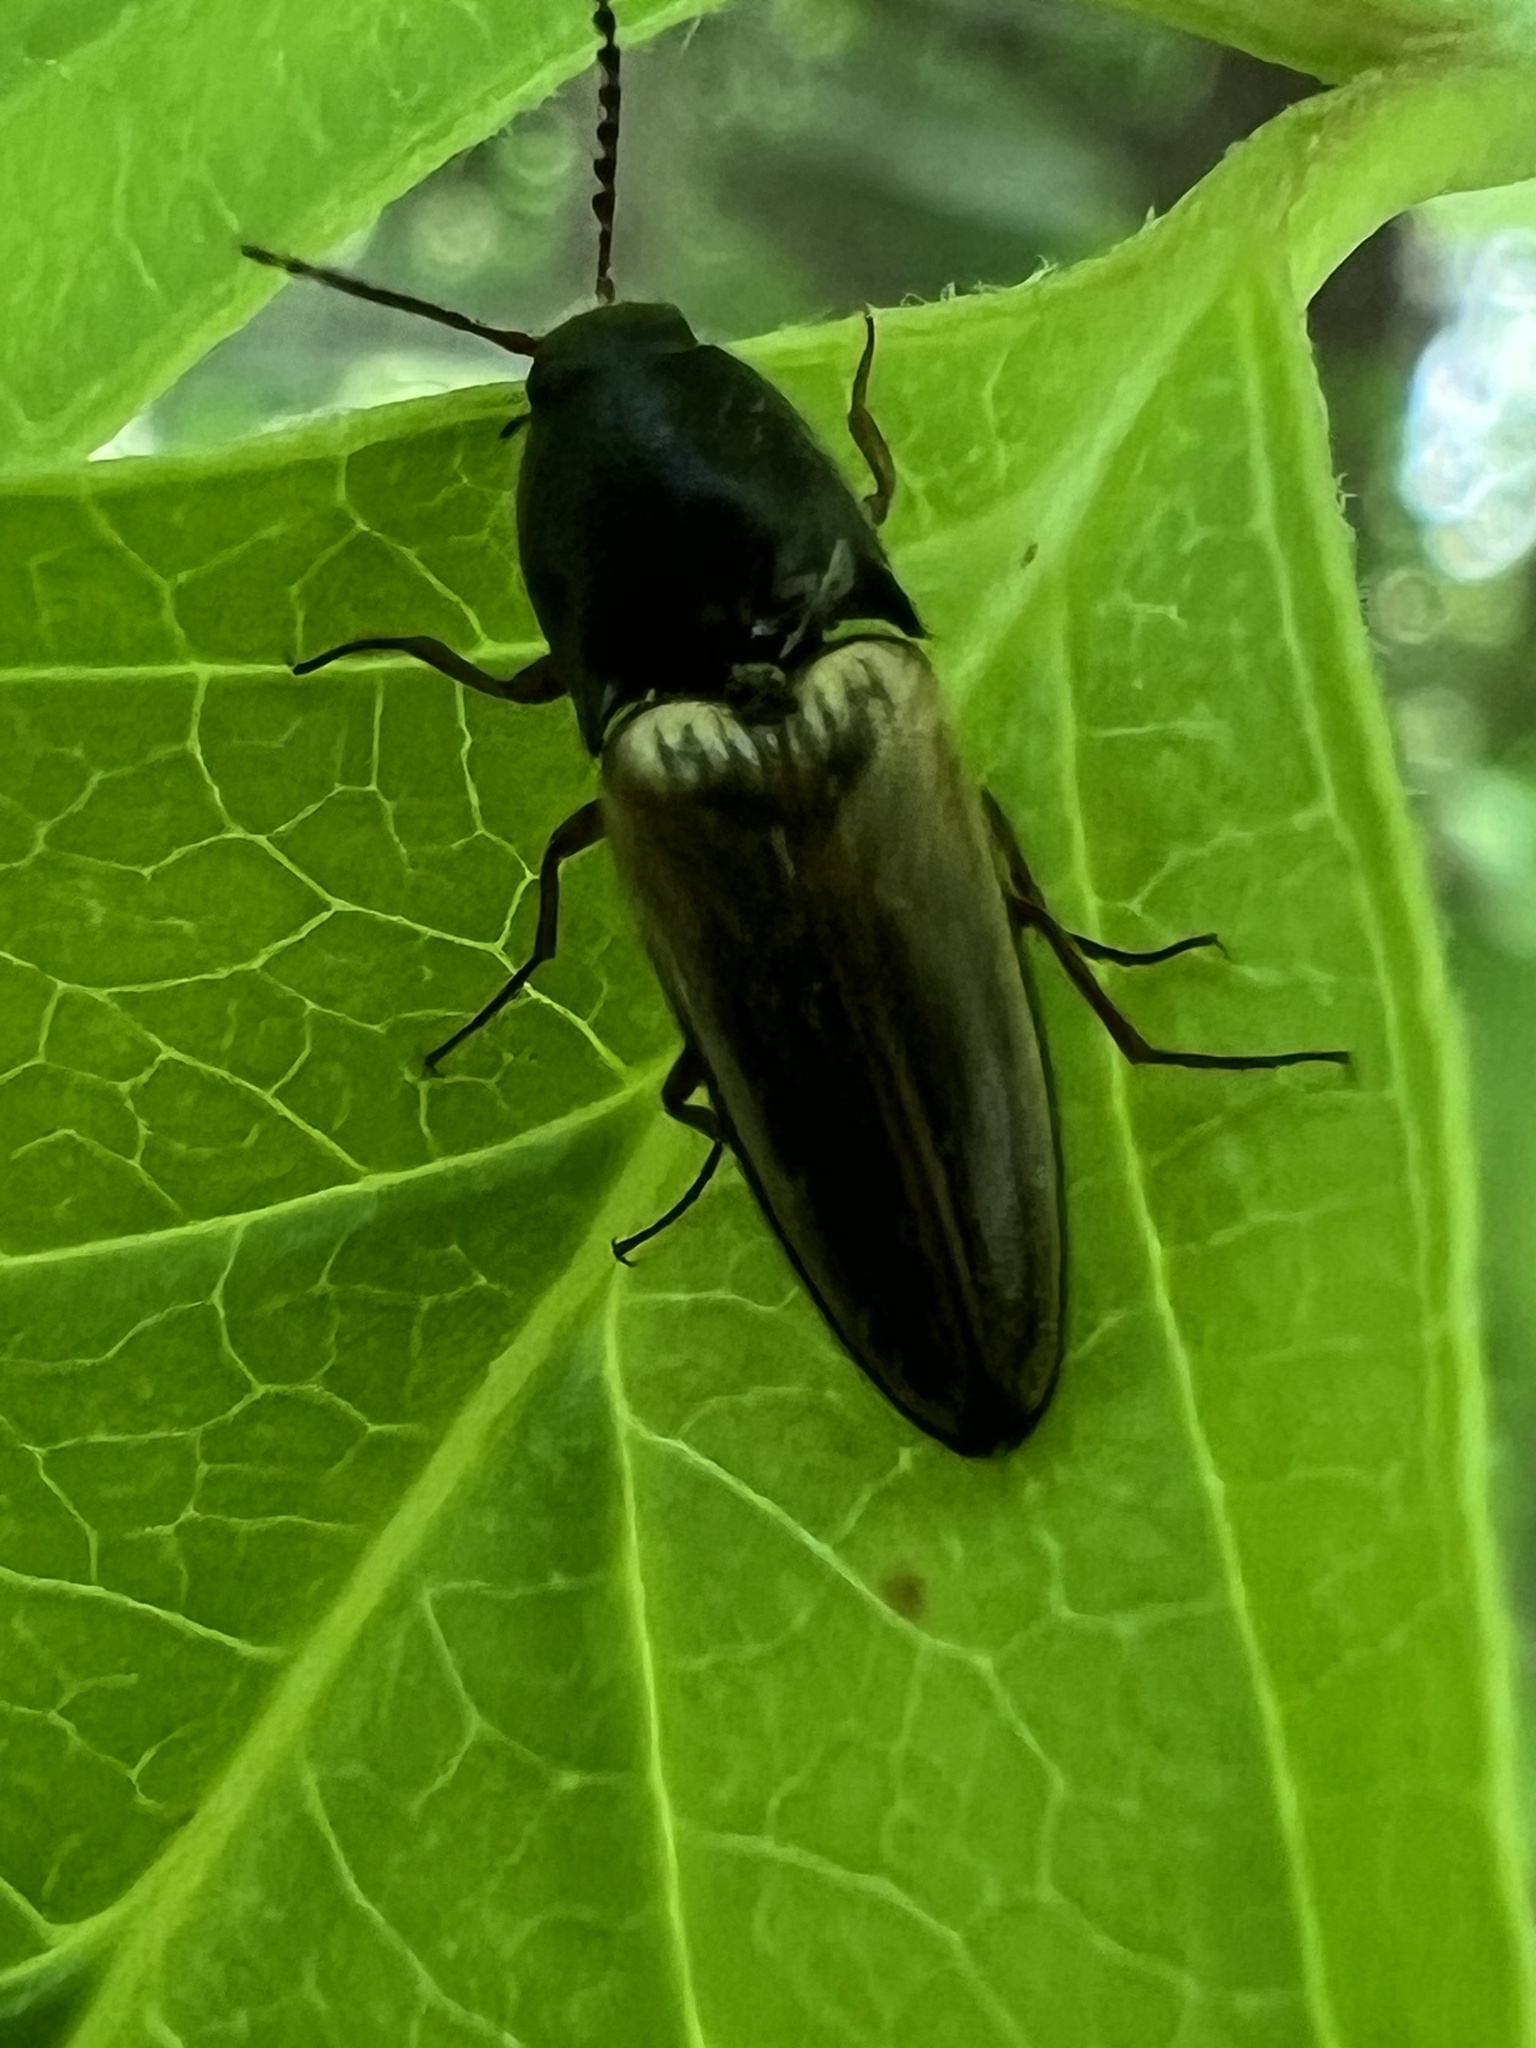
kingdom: Animalia
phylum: Arthropoda
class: Insecta
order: Coleoptera
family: Elateridae
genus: Ampedus
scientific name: Ampedus nigricollis
